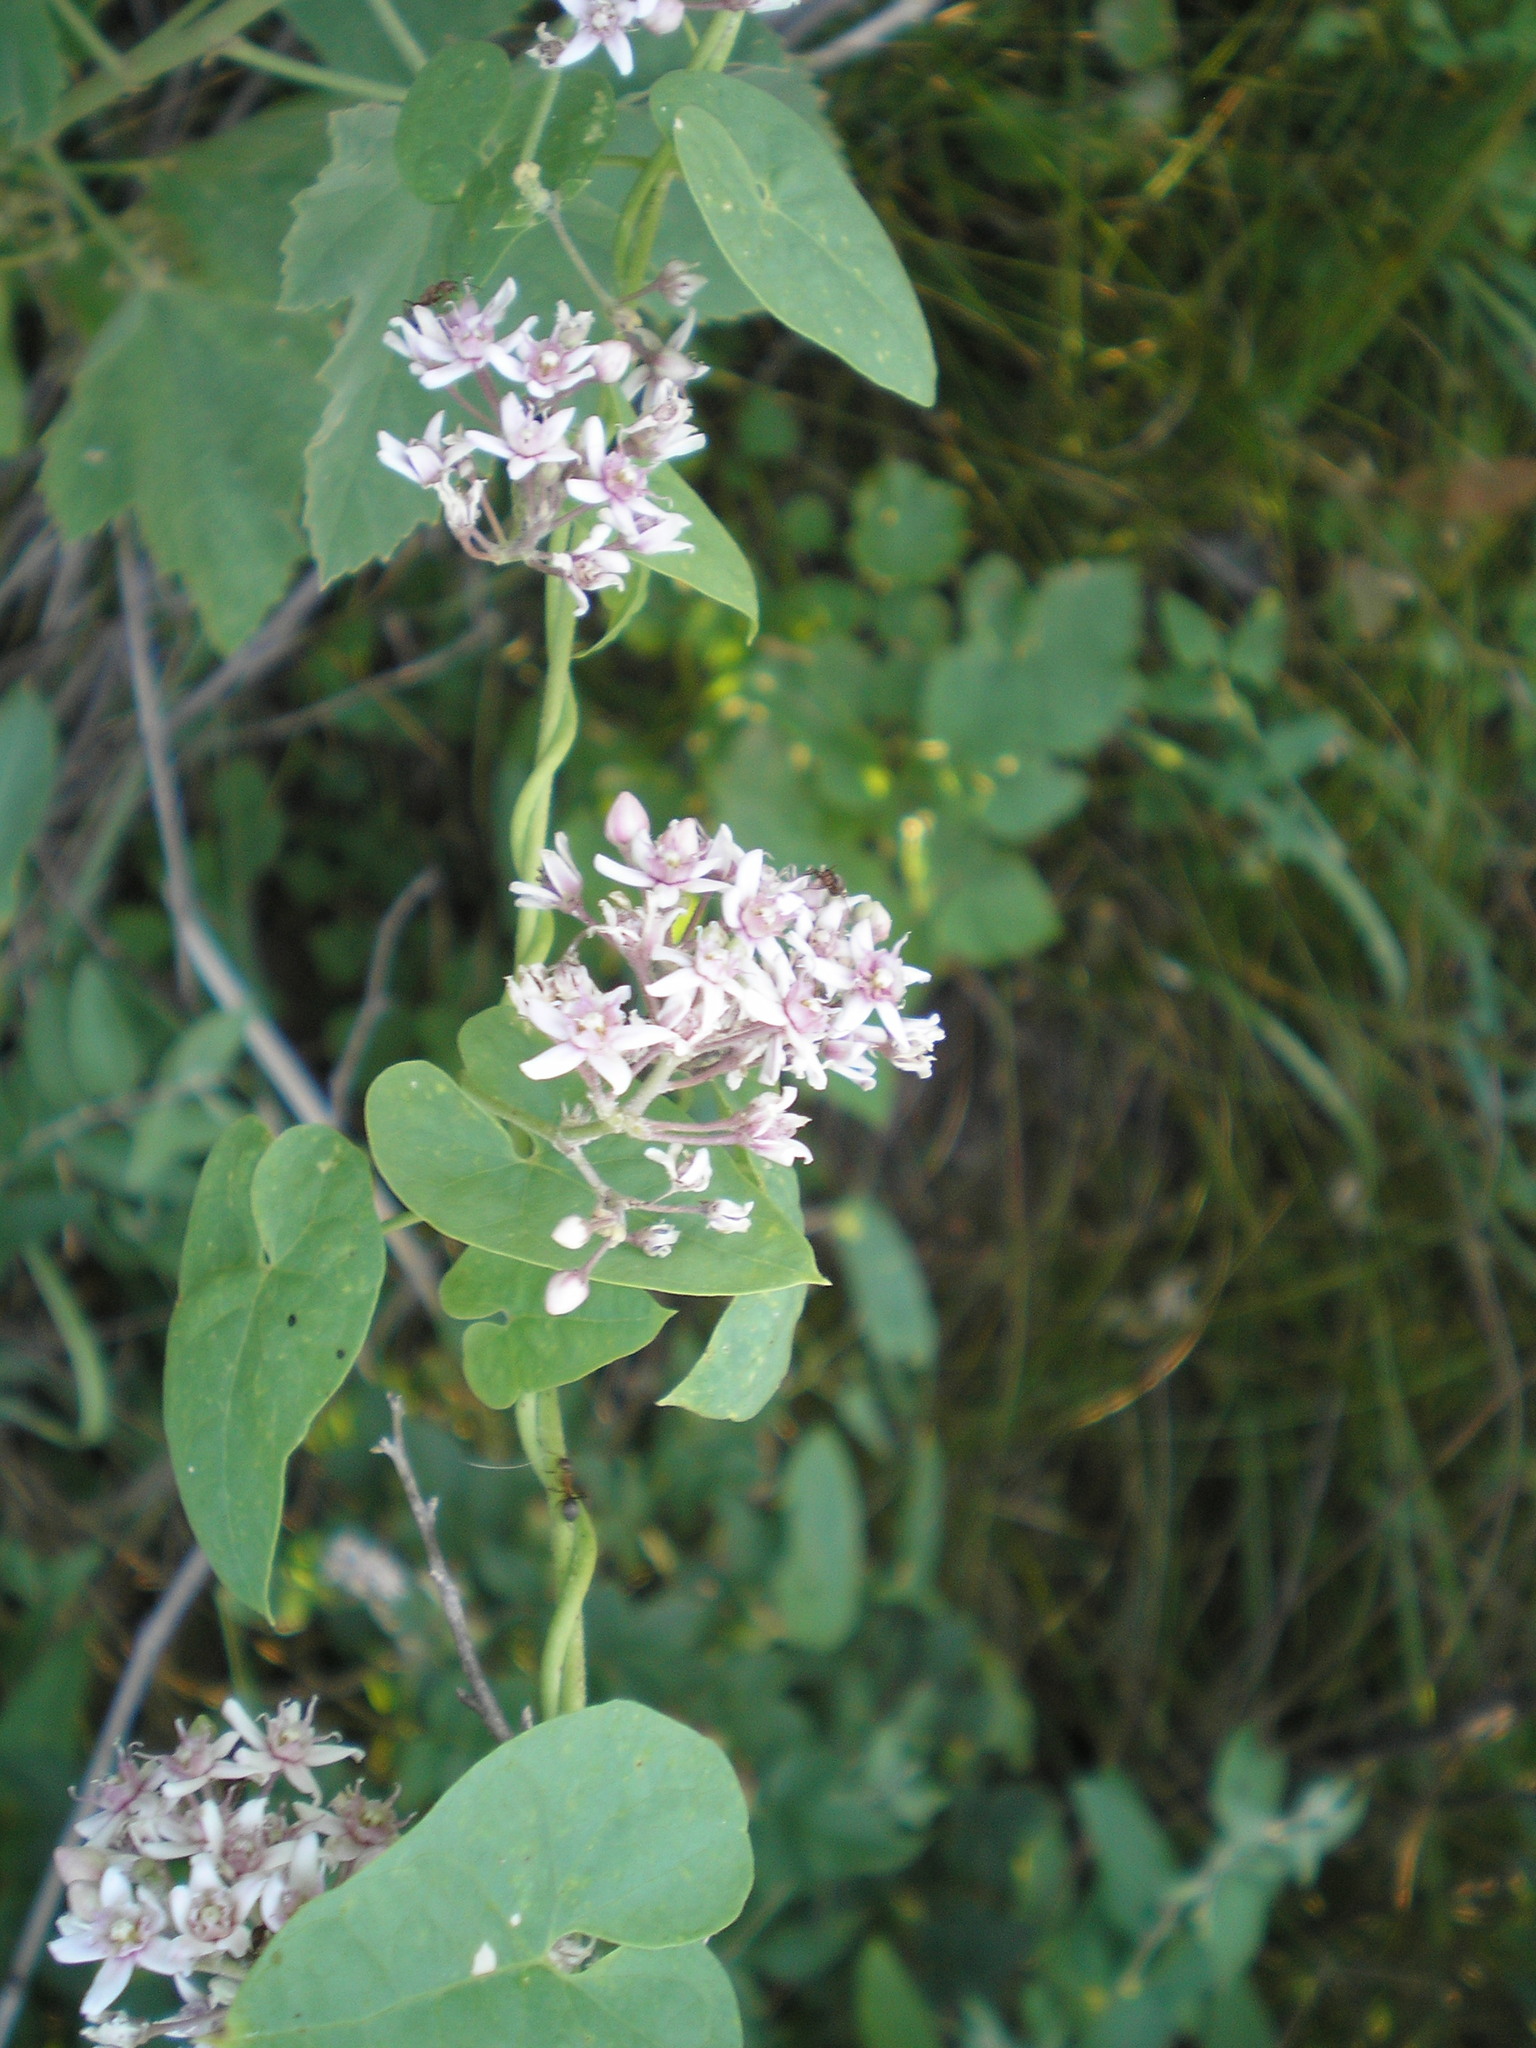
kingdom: Plantae
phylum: Tracheophyta
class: Magnoliopsida
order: Gentianales
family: Apocynaceae
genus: Cynanchum
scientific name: Cynanchum acutum
